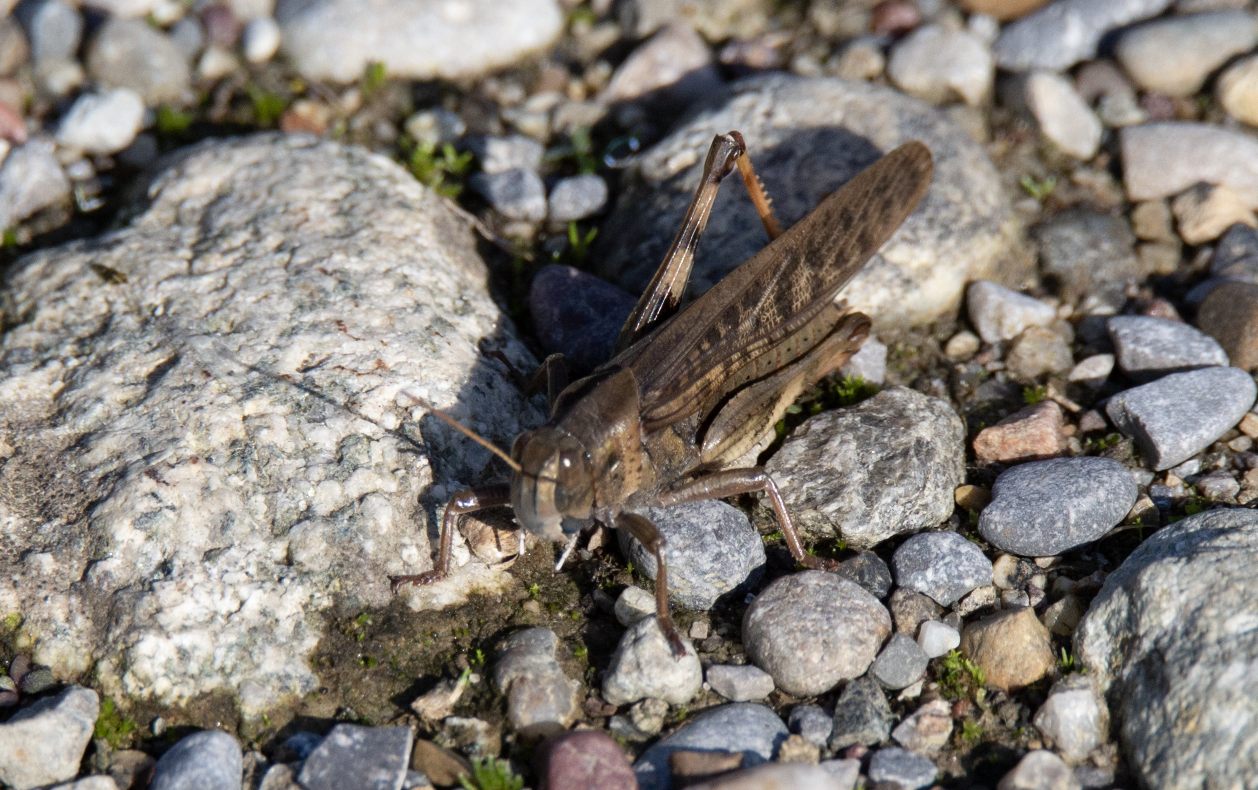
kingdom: Animalia
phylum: Arthropoda
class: Insecta
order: Orthoptera
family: Acrididae
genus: Locusta
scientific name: Locusta migratoria
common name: Migratory locust
